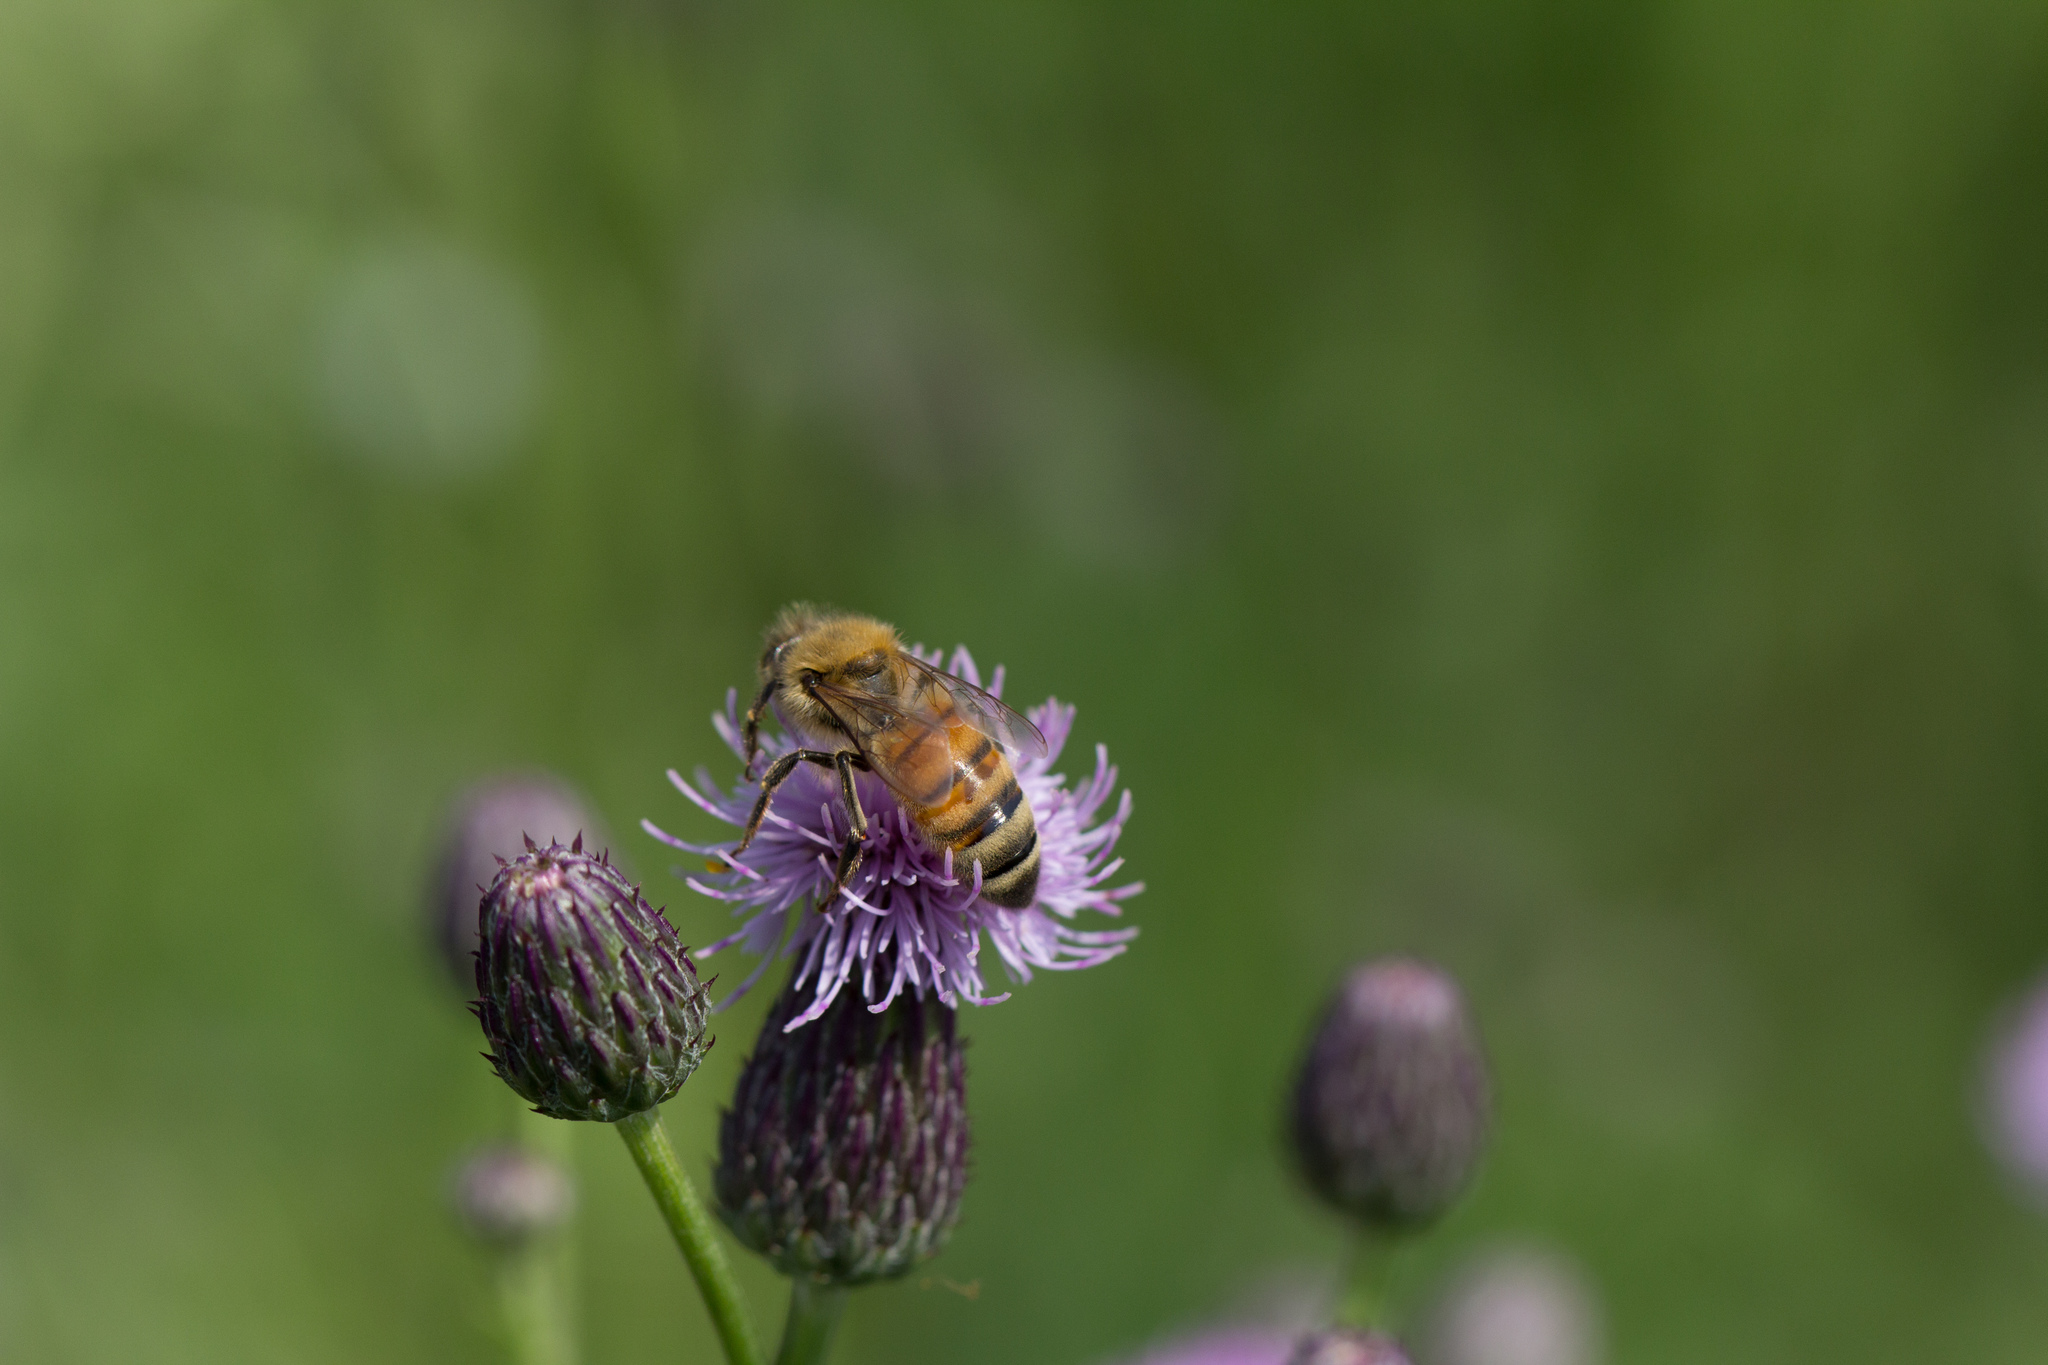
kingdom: Animalia
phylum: Arthropoda
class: Insecta
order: Hymenoptera
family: Apidae
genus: Apis
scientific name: Apis mellifera
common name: Honey bee
